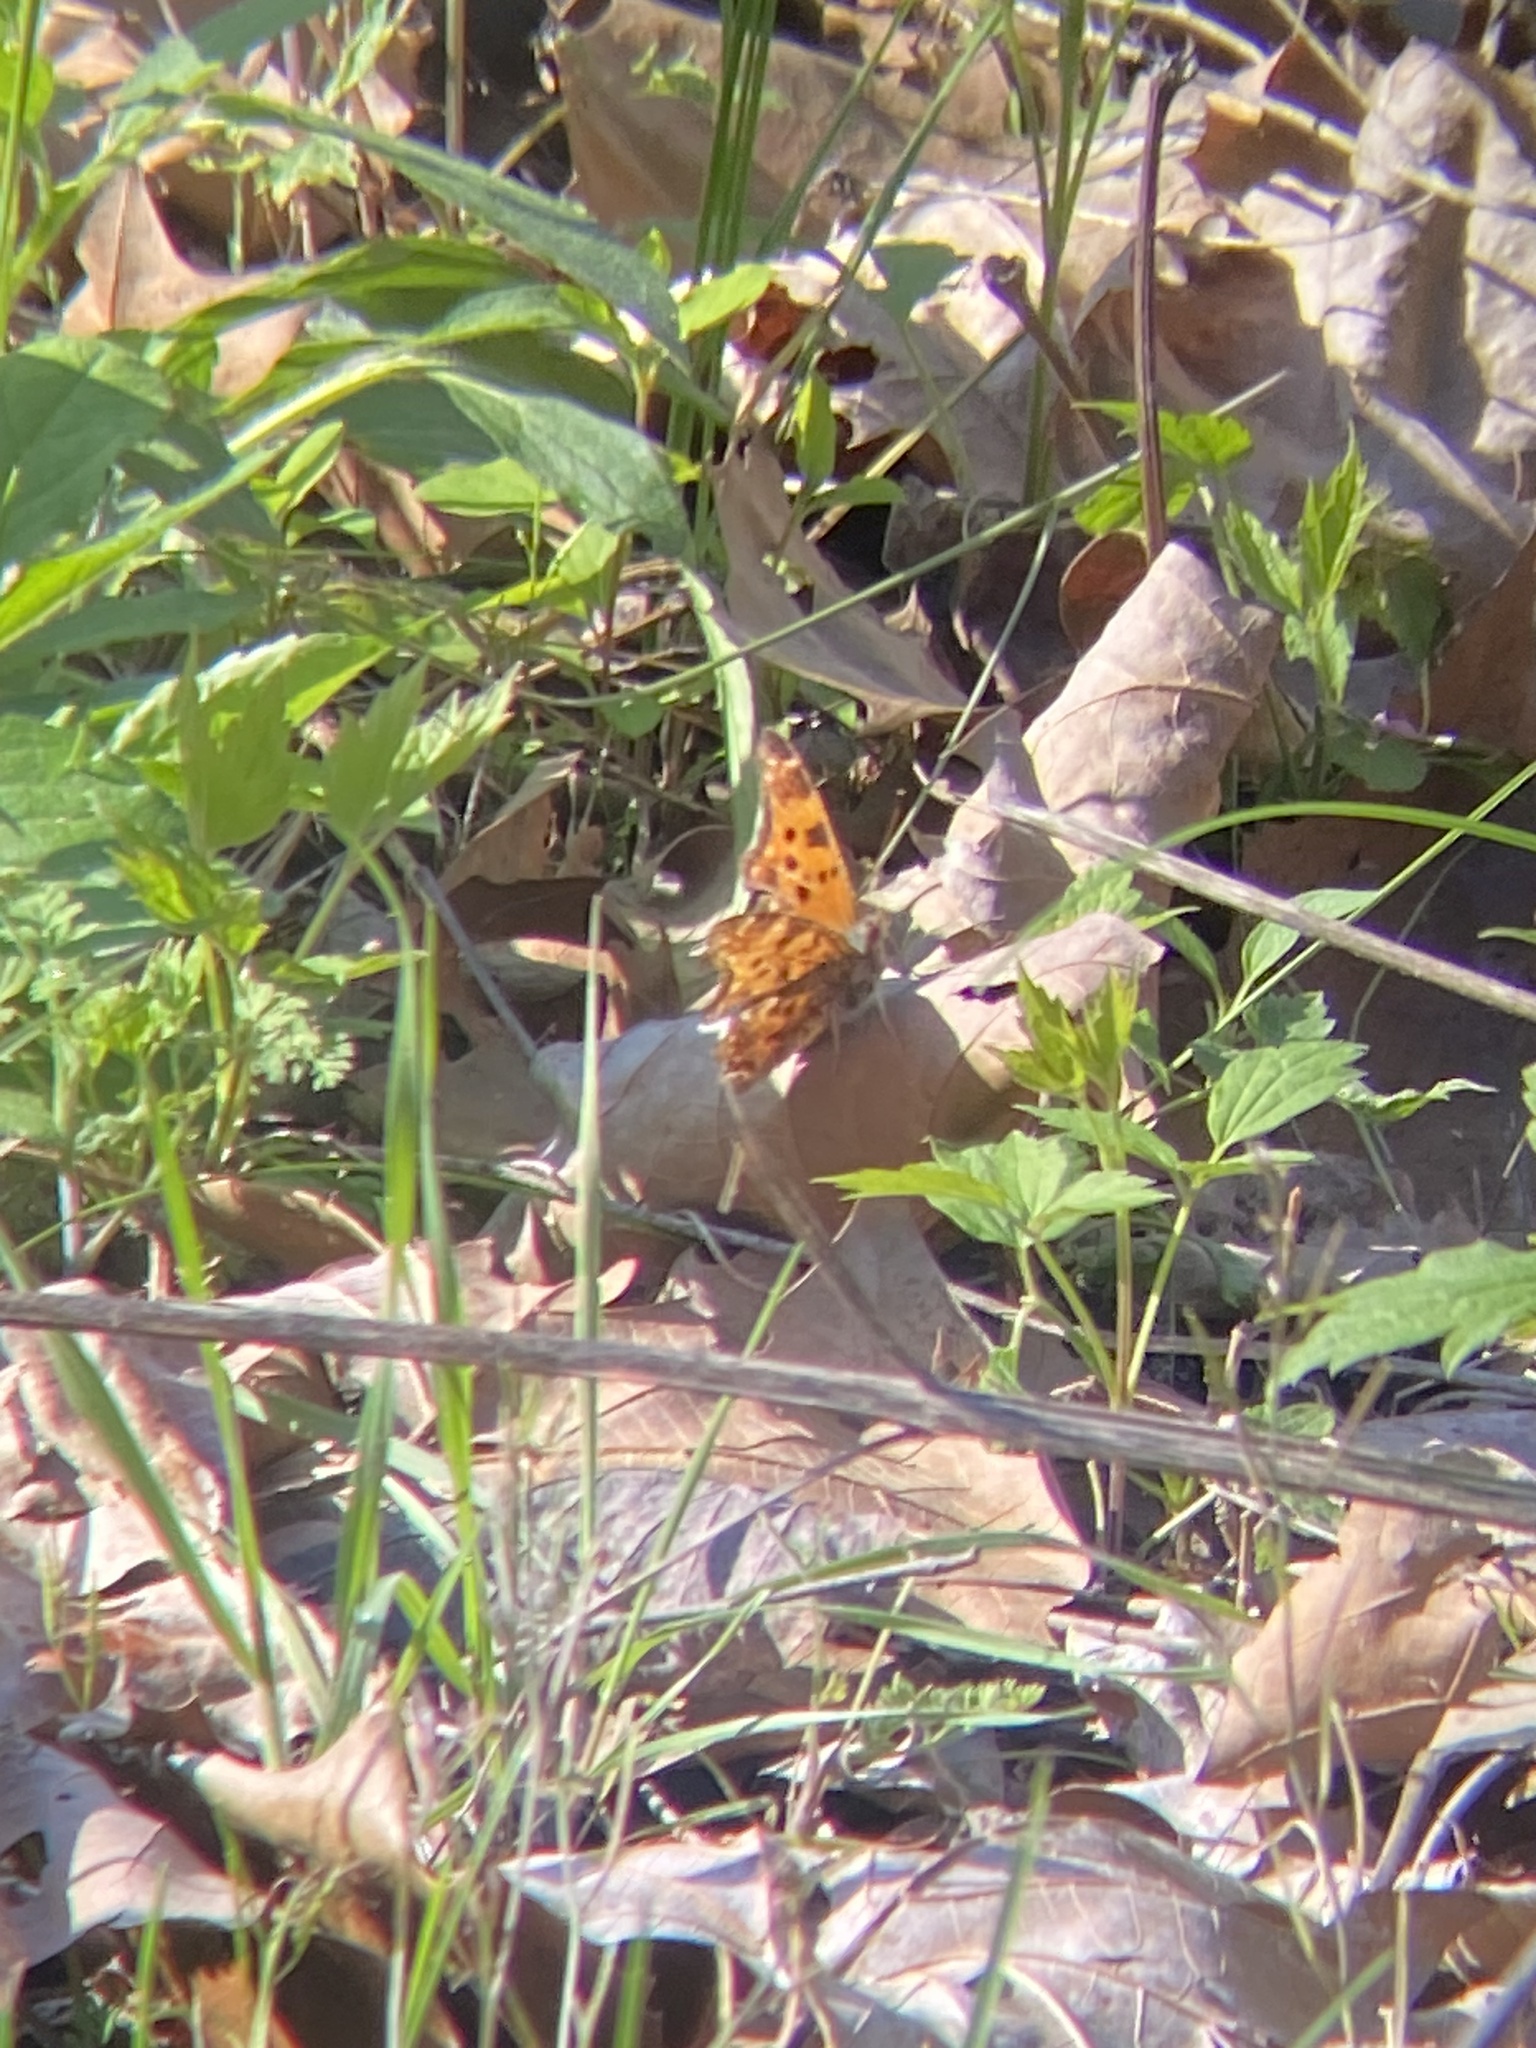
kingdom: Animalia
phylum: Arthropoda
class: Insecta
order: Lepidoptera
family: Nymphalidae
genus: Polygonia
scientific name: Polygonia comma
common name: Eastern comma
